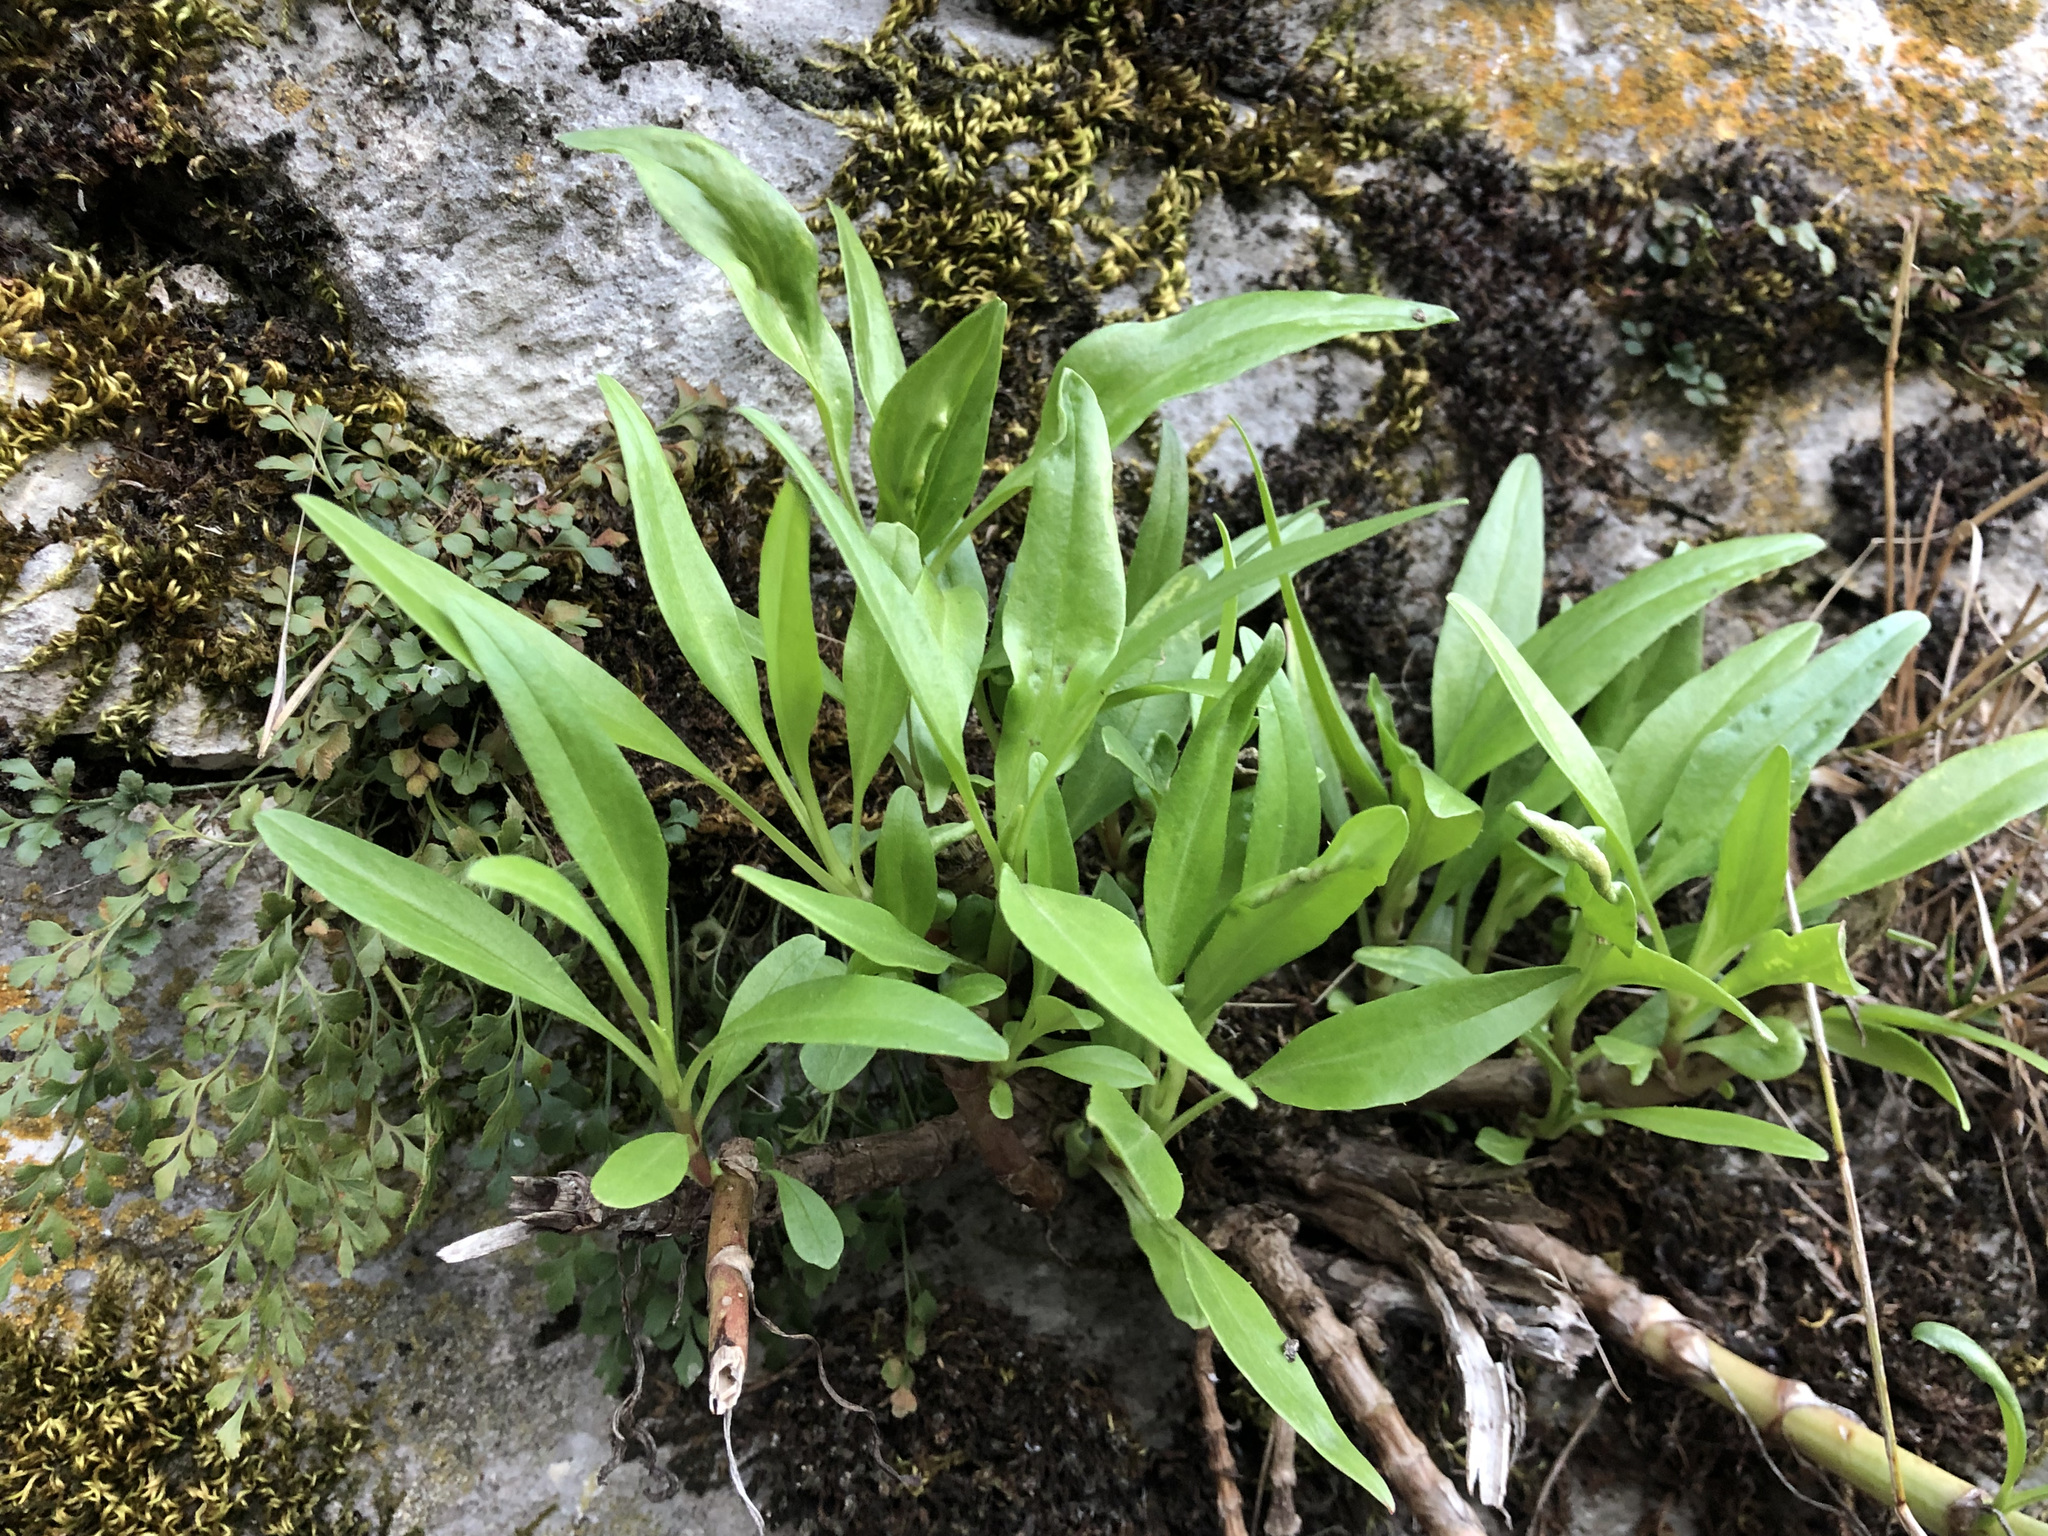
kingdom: Plantae
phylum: Tracheophyta
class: Magnoliopsida
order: Brassicales
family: Brassicaceae
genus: Erysimum
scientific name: Erysimum cheiri
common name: Wallflower
